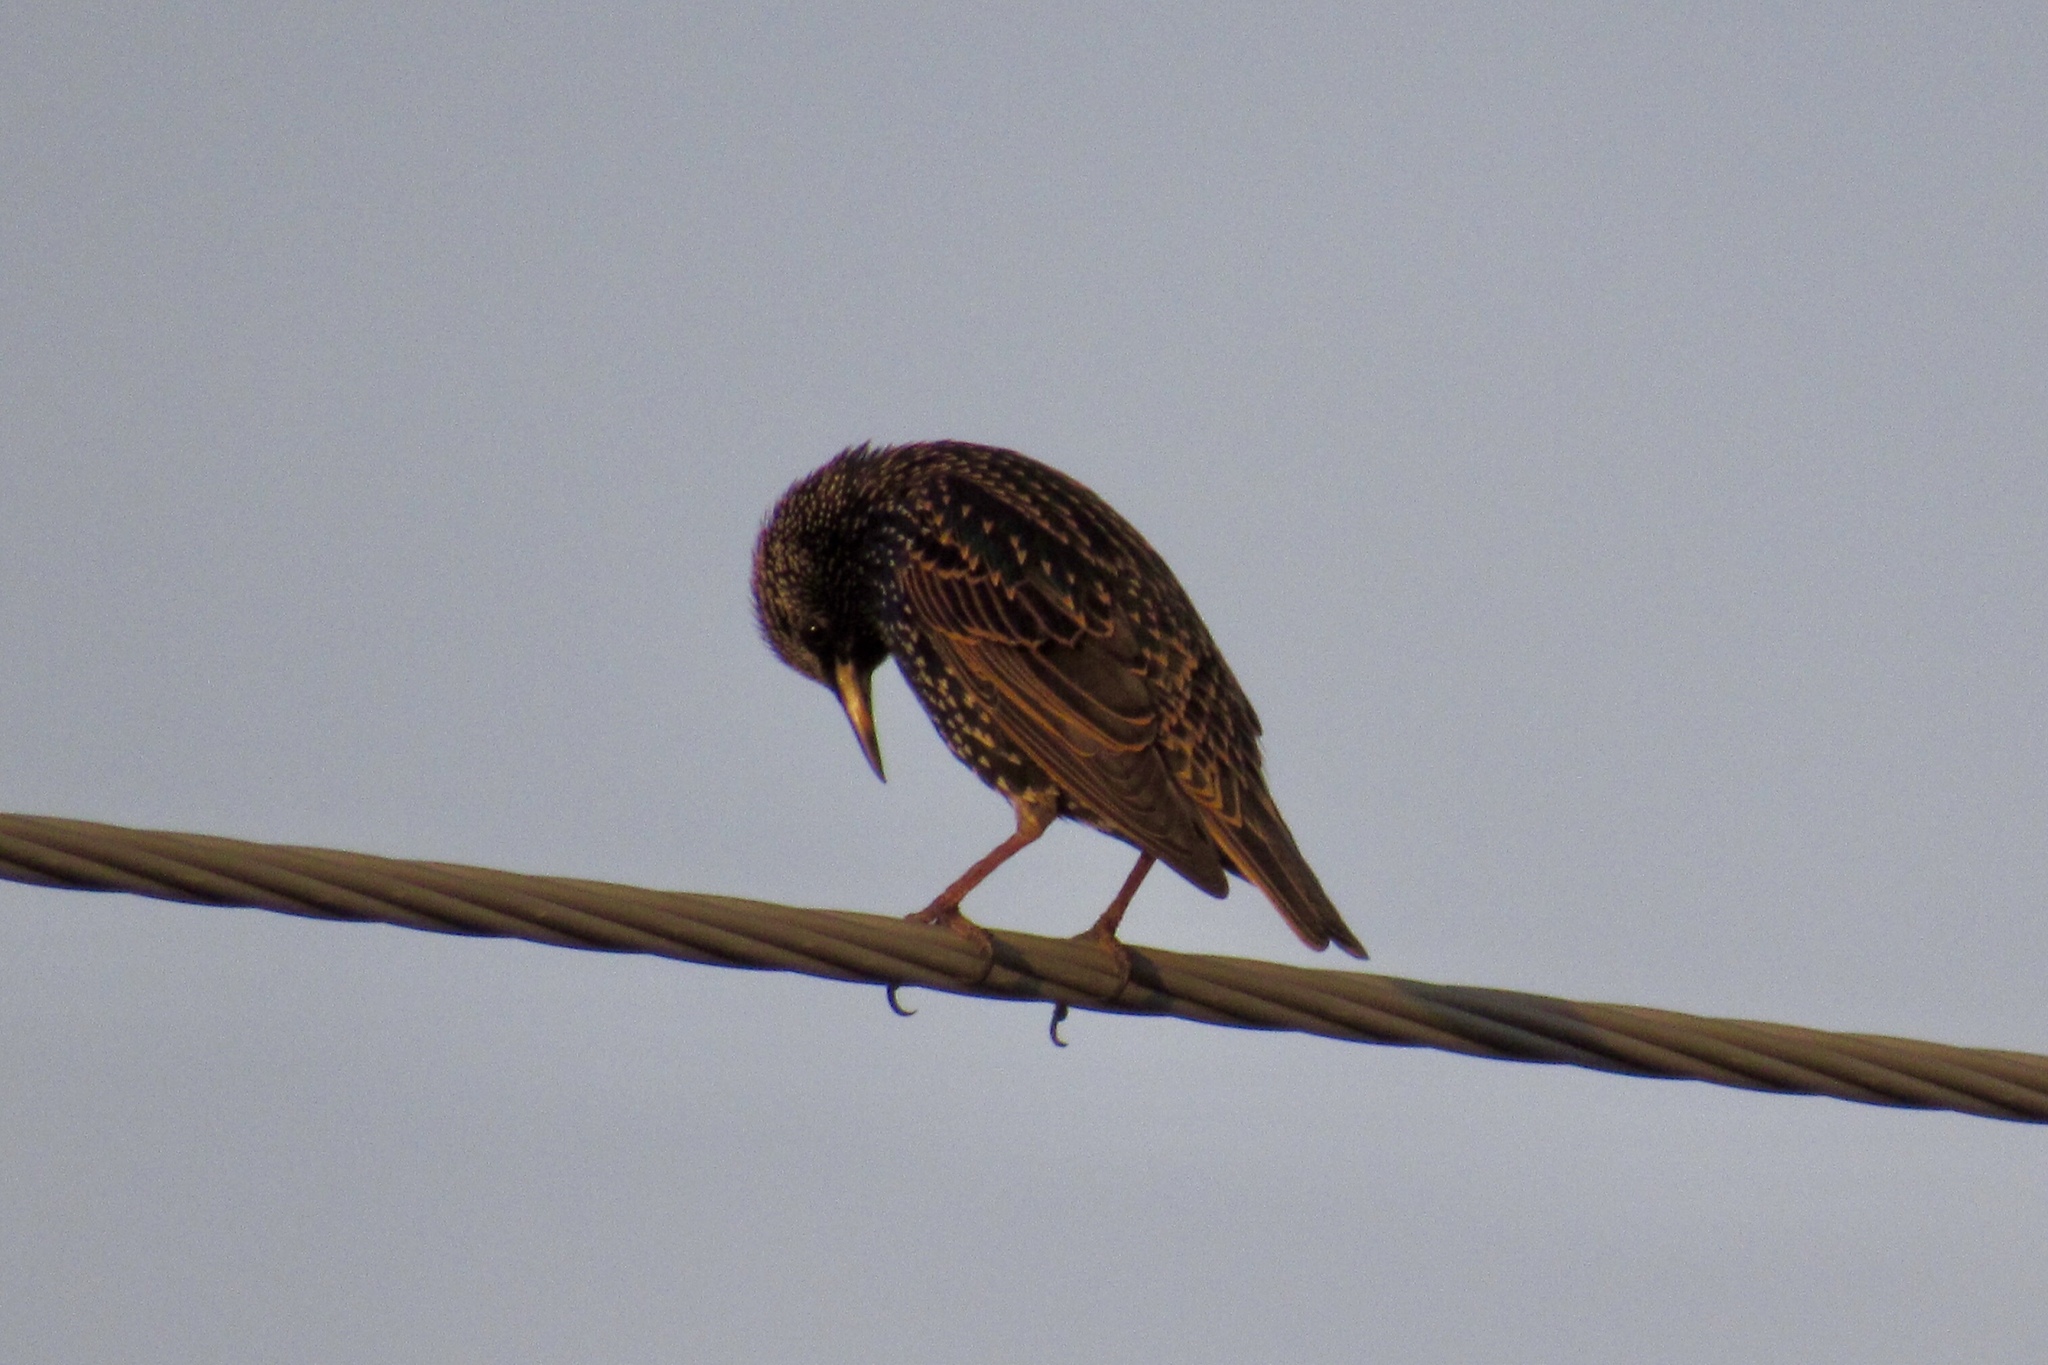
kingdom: Animalia
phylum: Chordata
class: Aves
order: Passeriformes
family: Sturnidae
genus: Sturnus
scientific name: Sturnus vulgaris
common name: Common starling
